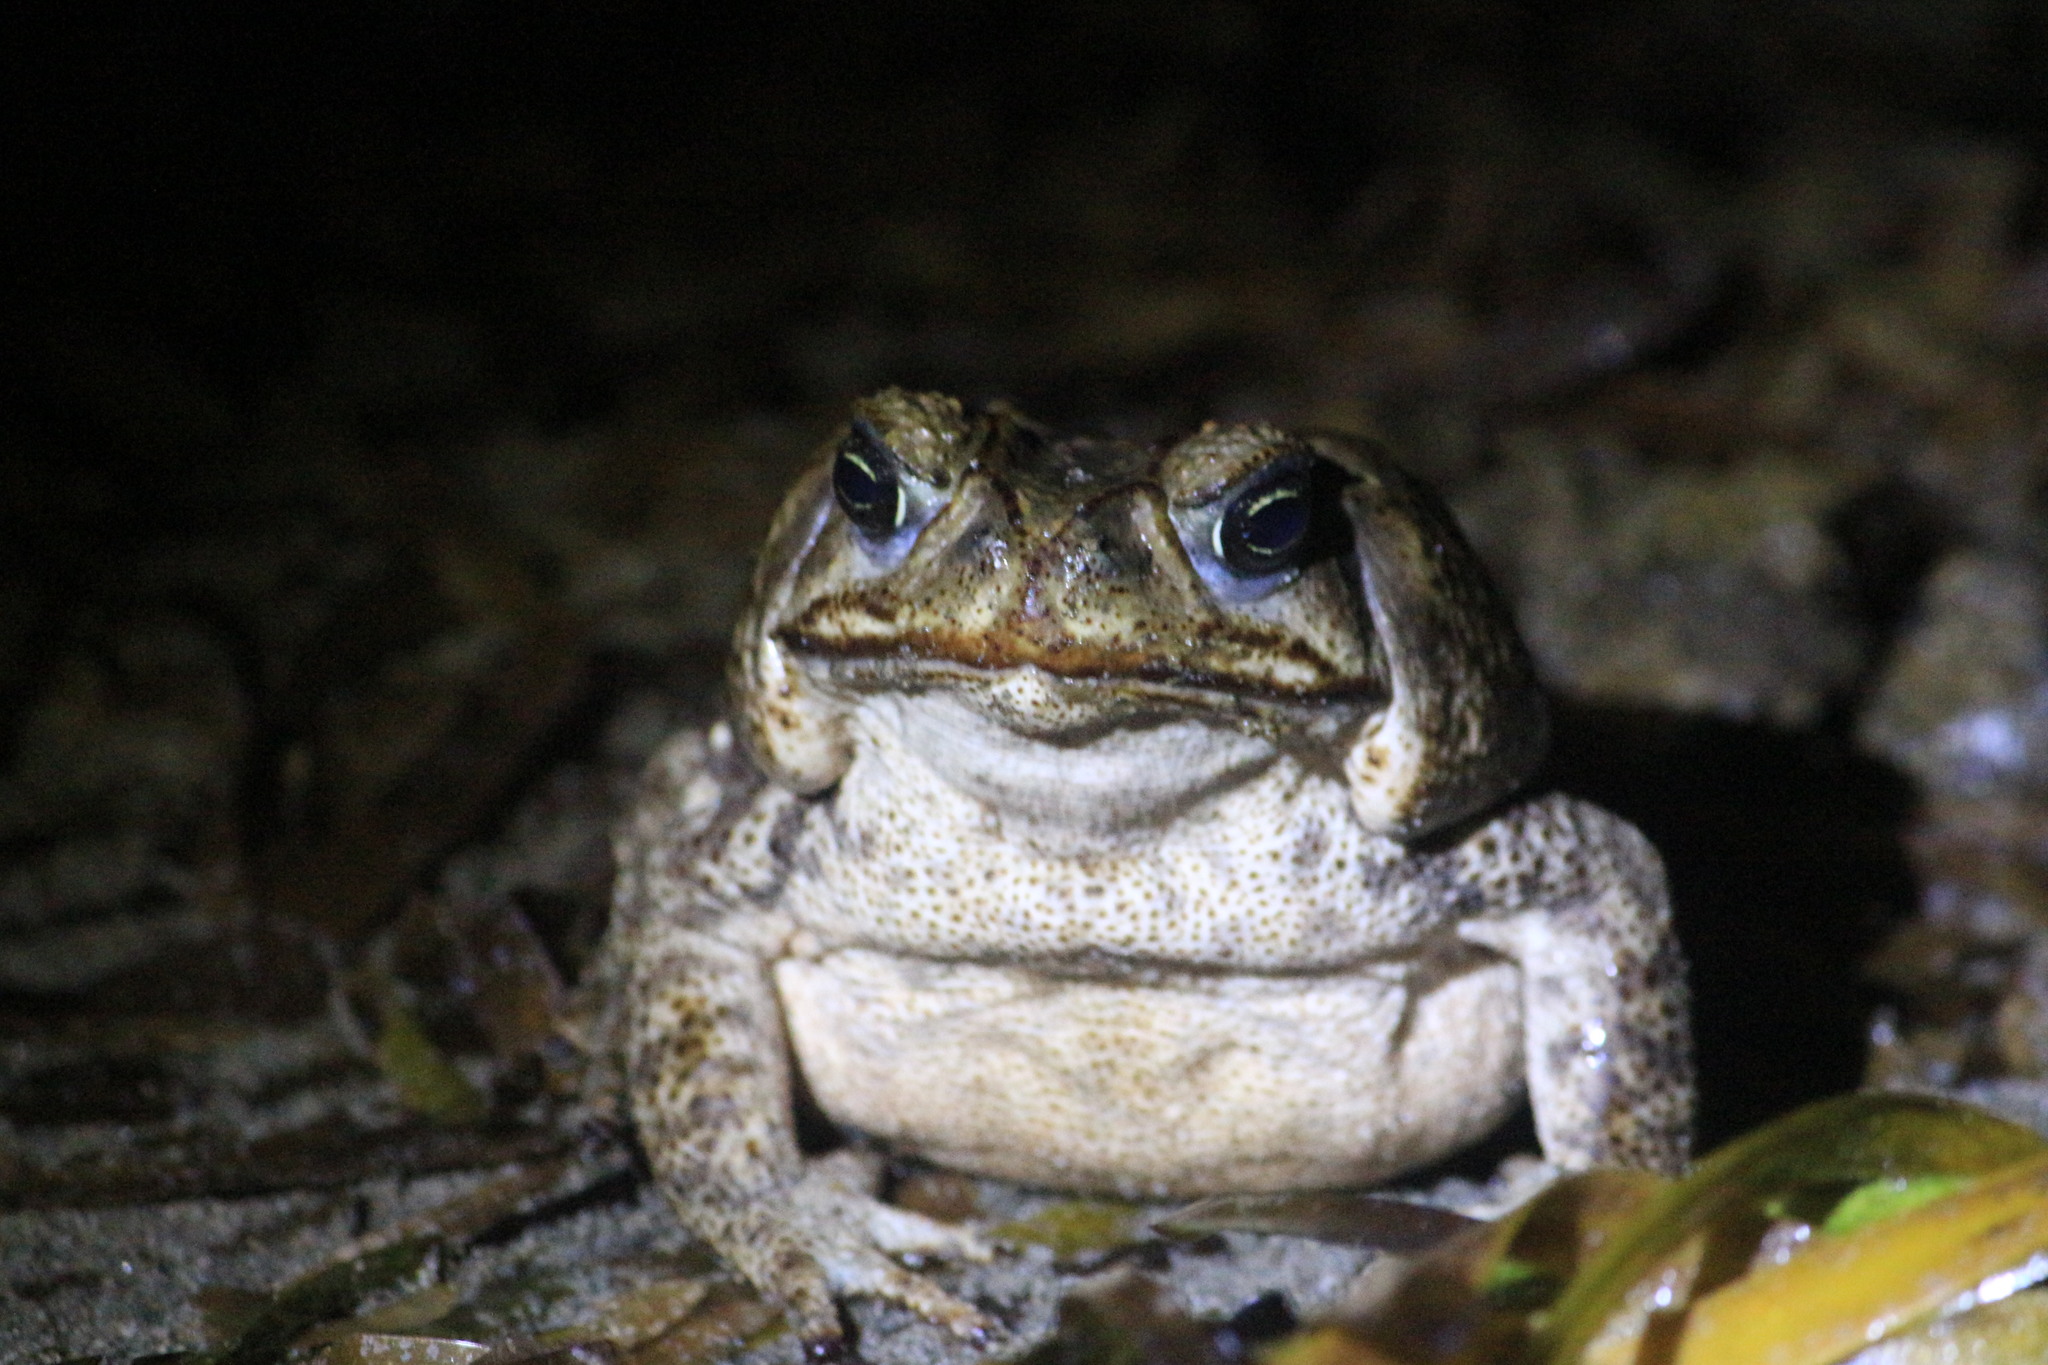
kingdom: Animalia
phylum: Chordata
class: Amphibia
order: Anura
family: Bufonidae
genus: Rhinella
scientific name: Rhinella horribilis
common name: Mesoamerican cane toad
